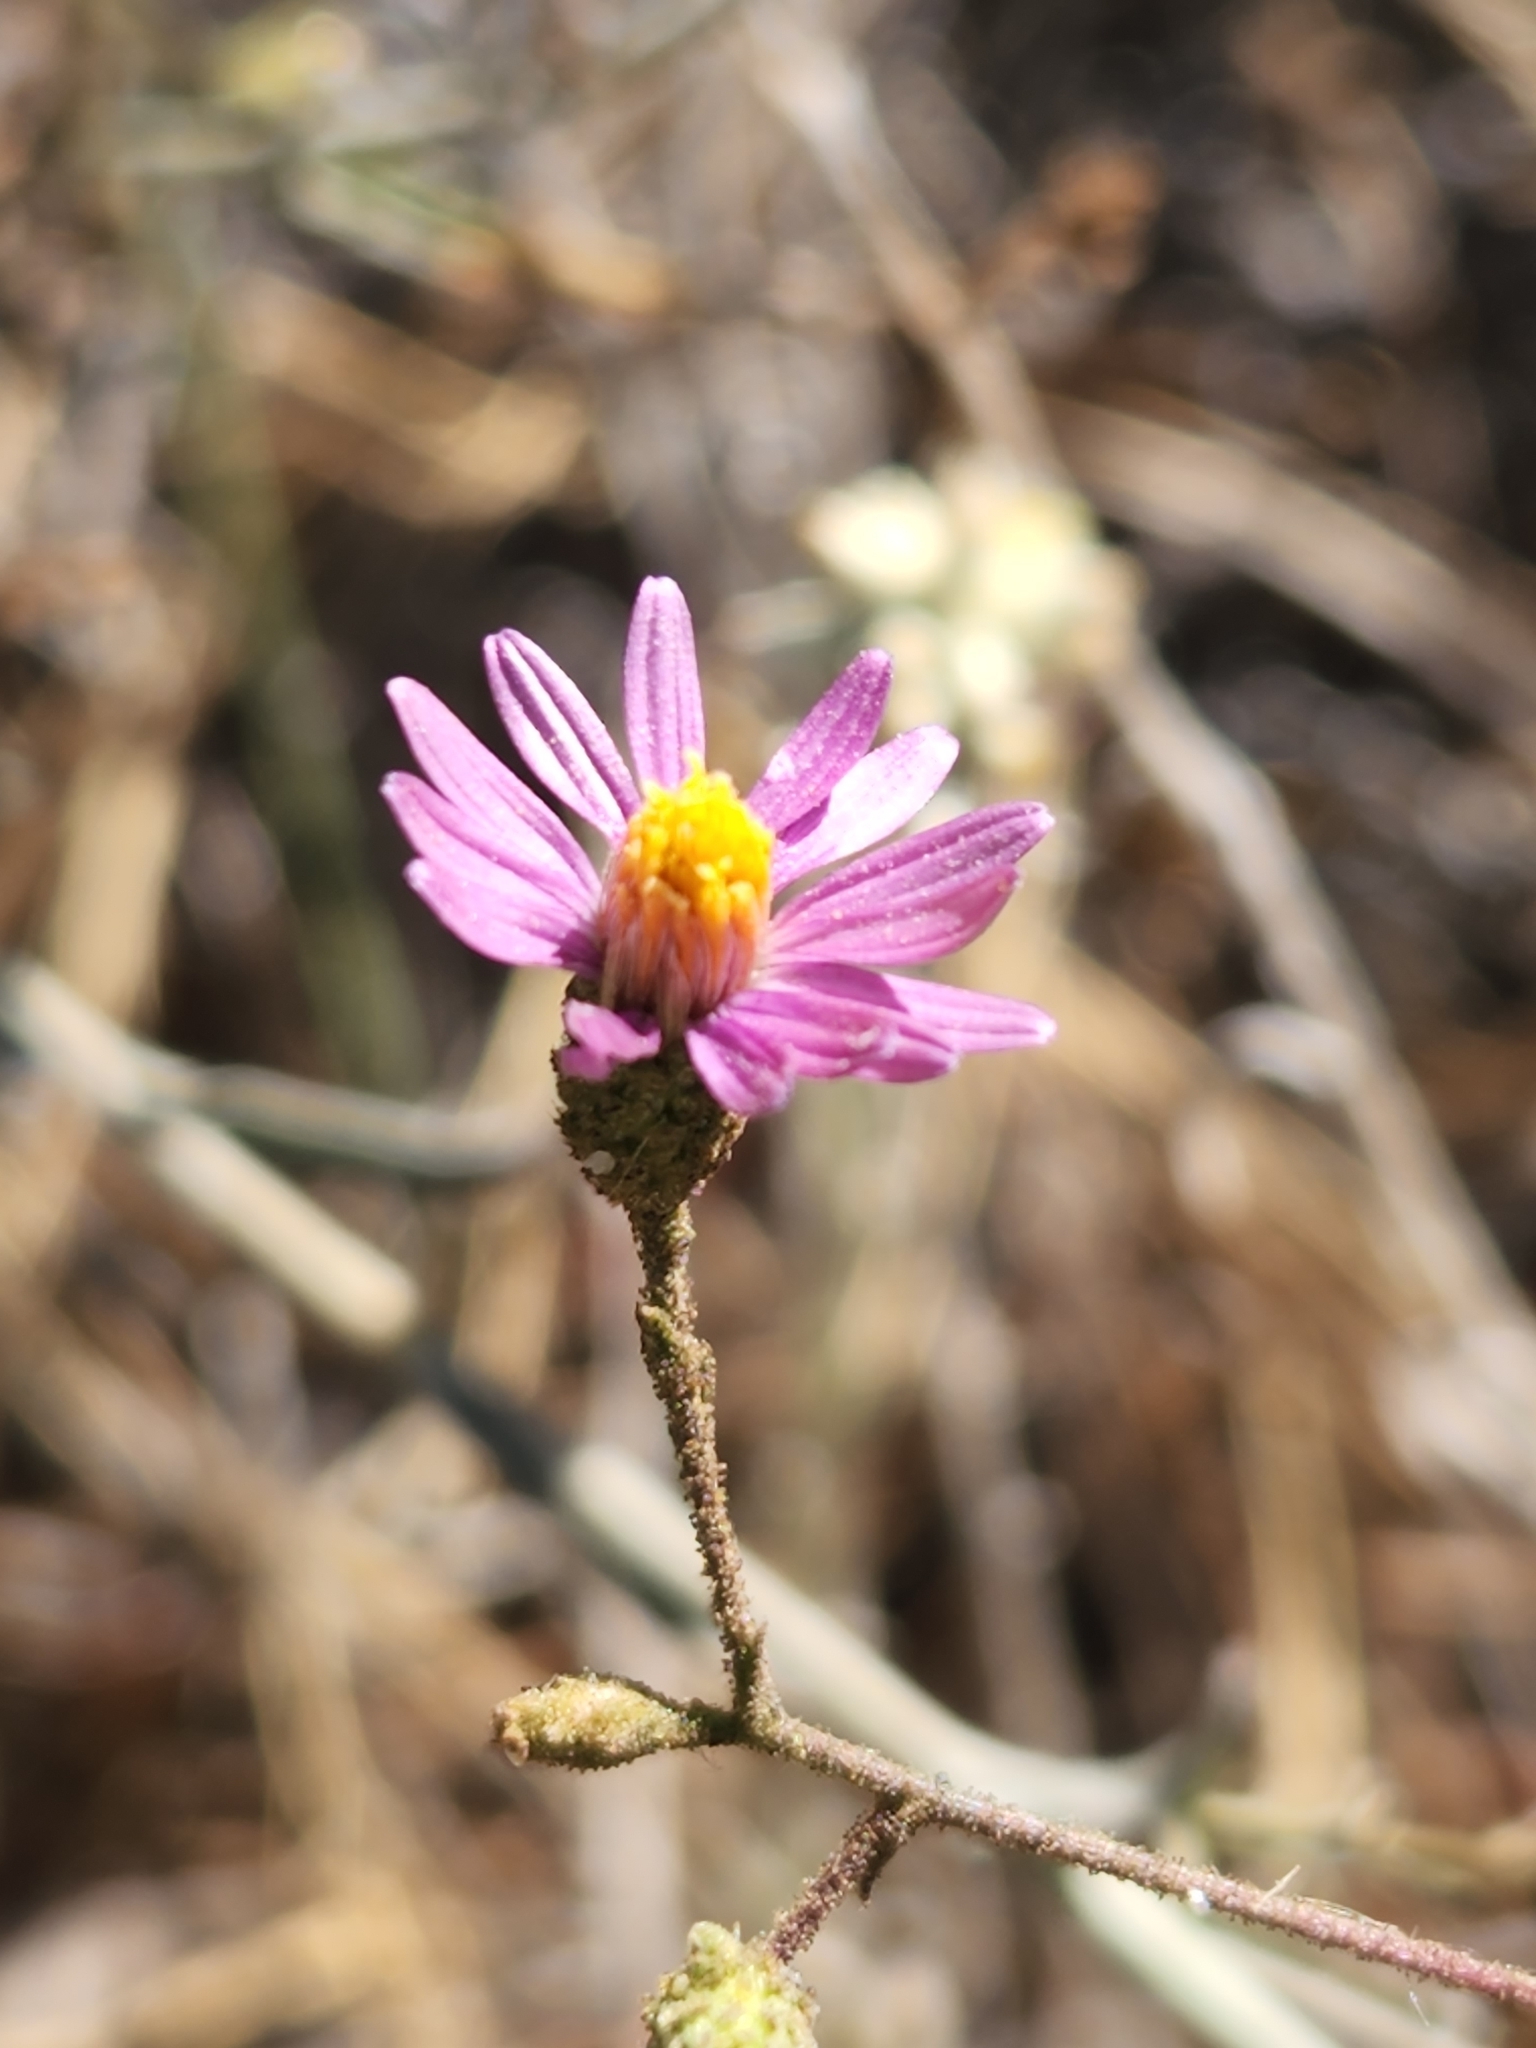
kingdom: Plantae
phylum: Tracheophyta
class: Magnoliopsida
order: Asterales
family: Asteraceae
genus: Corethrogyne
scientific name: Corethrogyne filaginifolia
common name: Sand-aster
